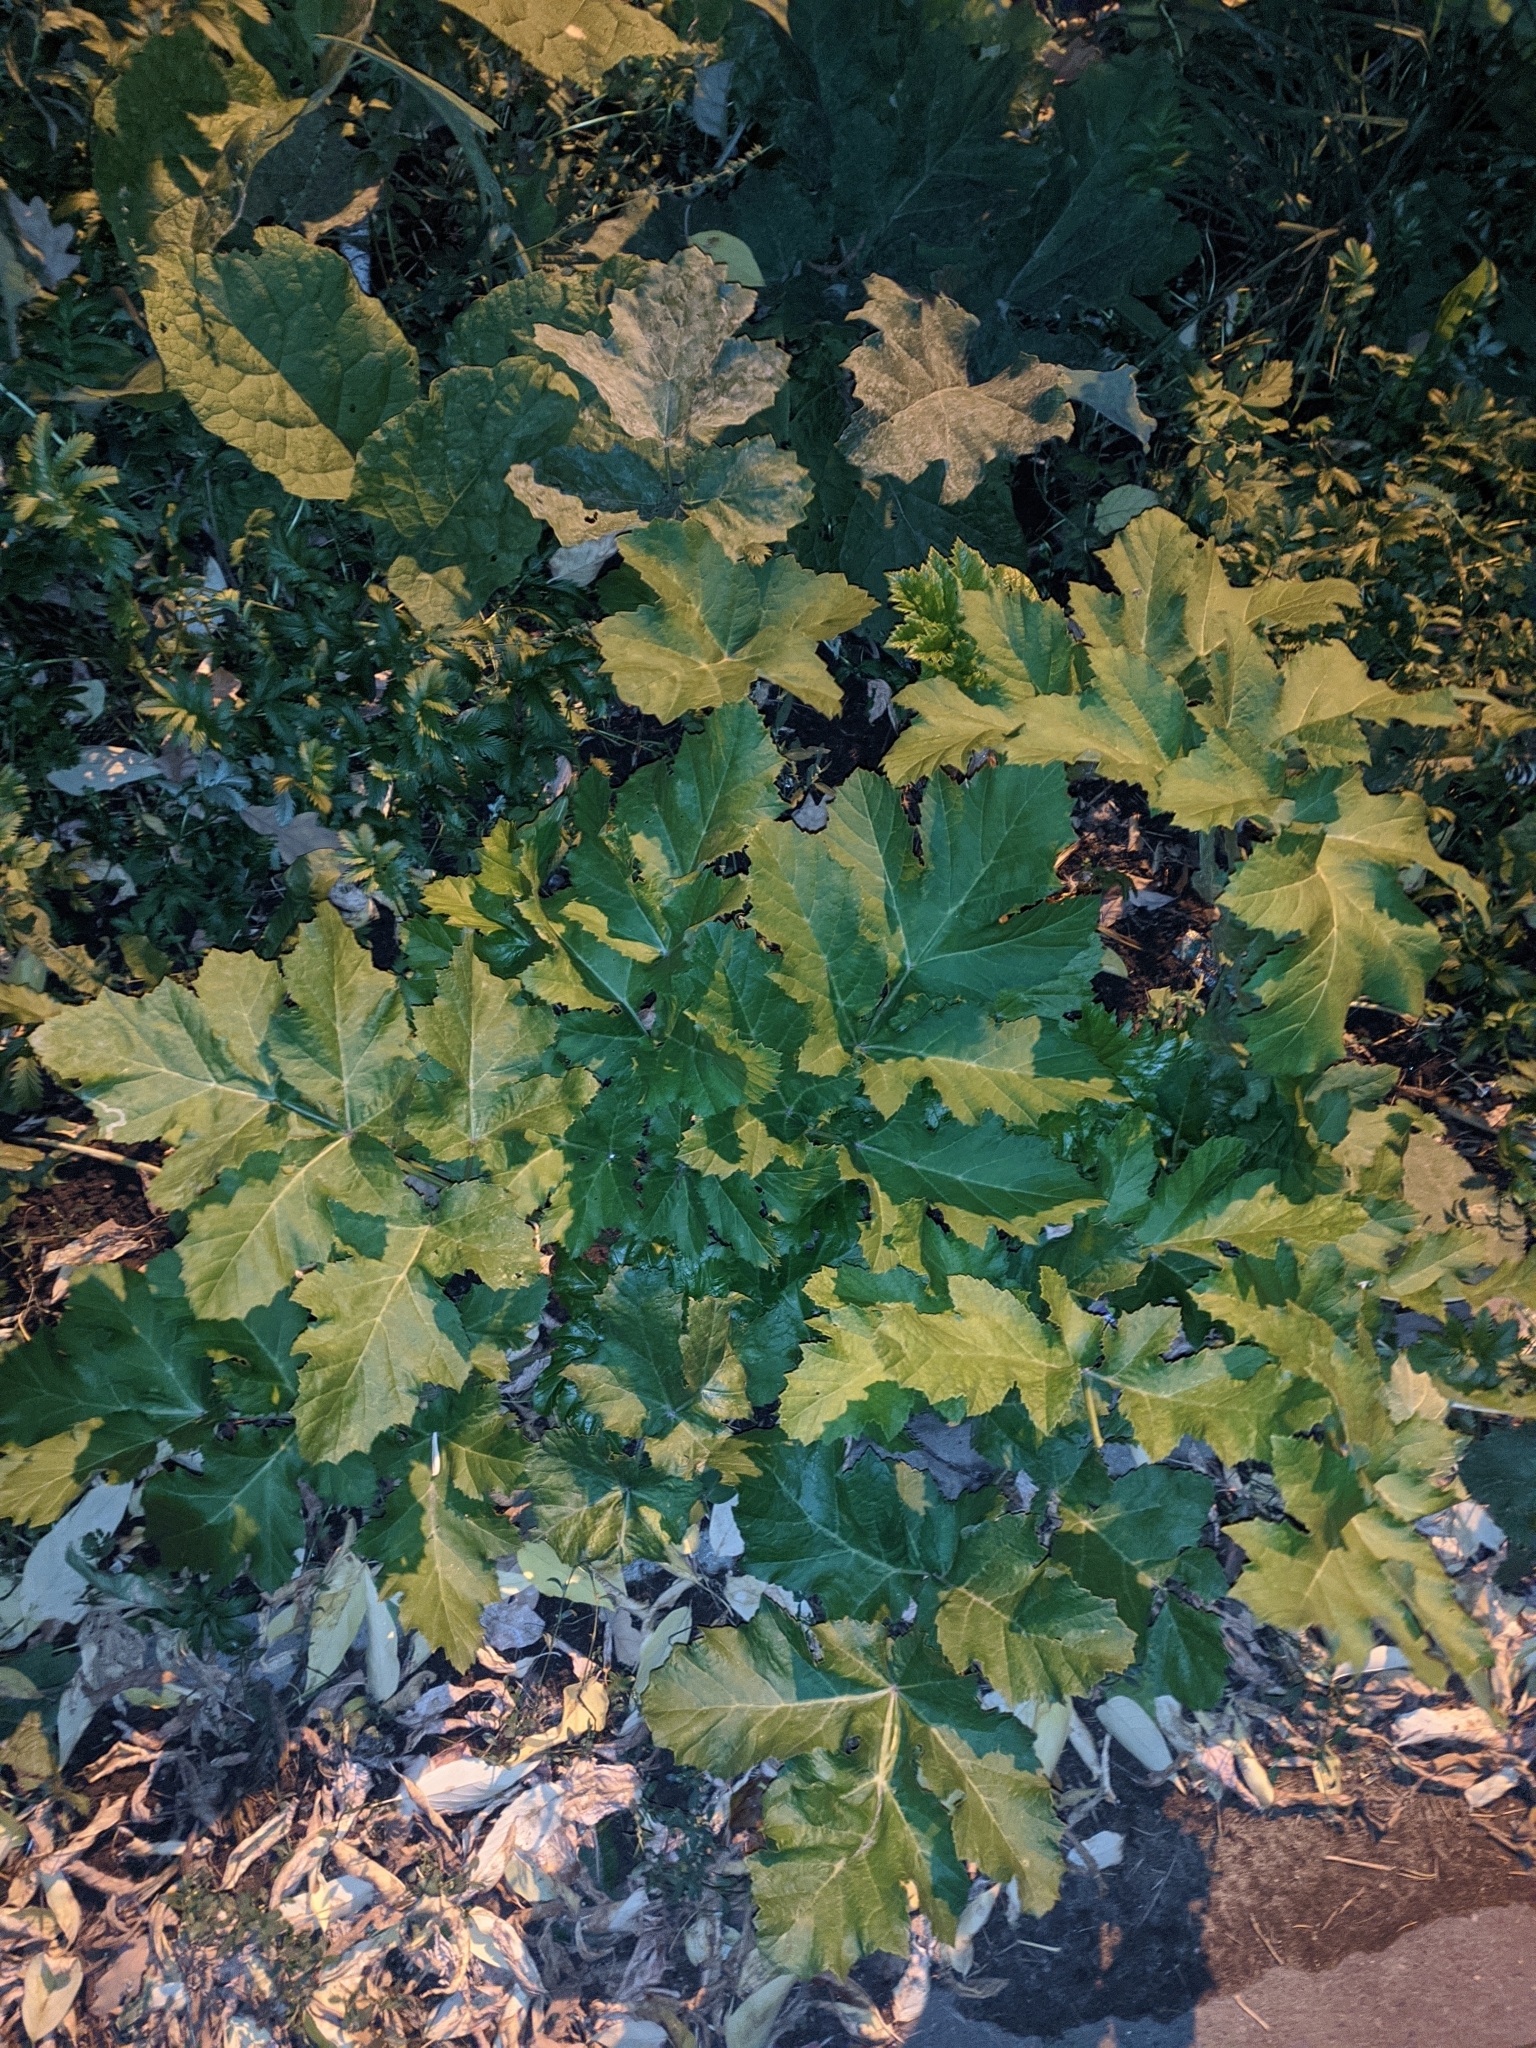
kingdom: Plantae
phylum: Tracheophyta
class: Magnoliopsida
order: Apiales
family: Apiaceae
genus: Heracleum
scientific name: Heracleum sosnowskyi
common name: Sosnowsky's hogweed
